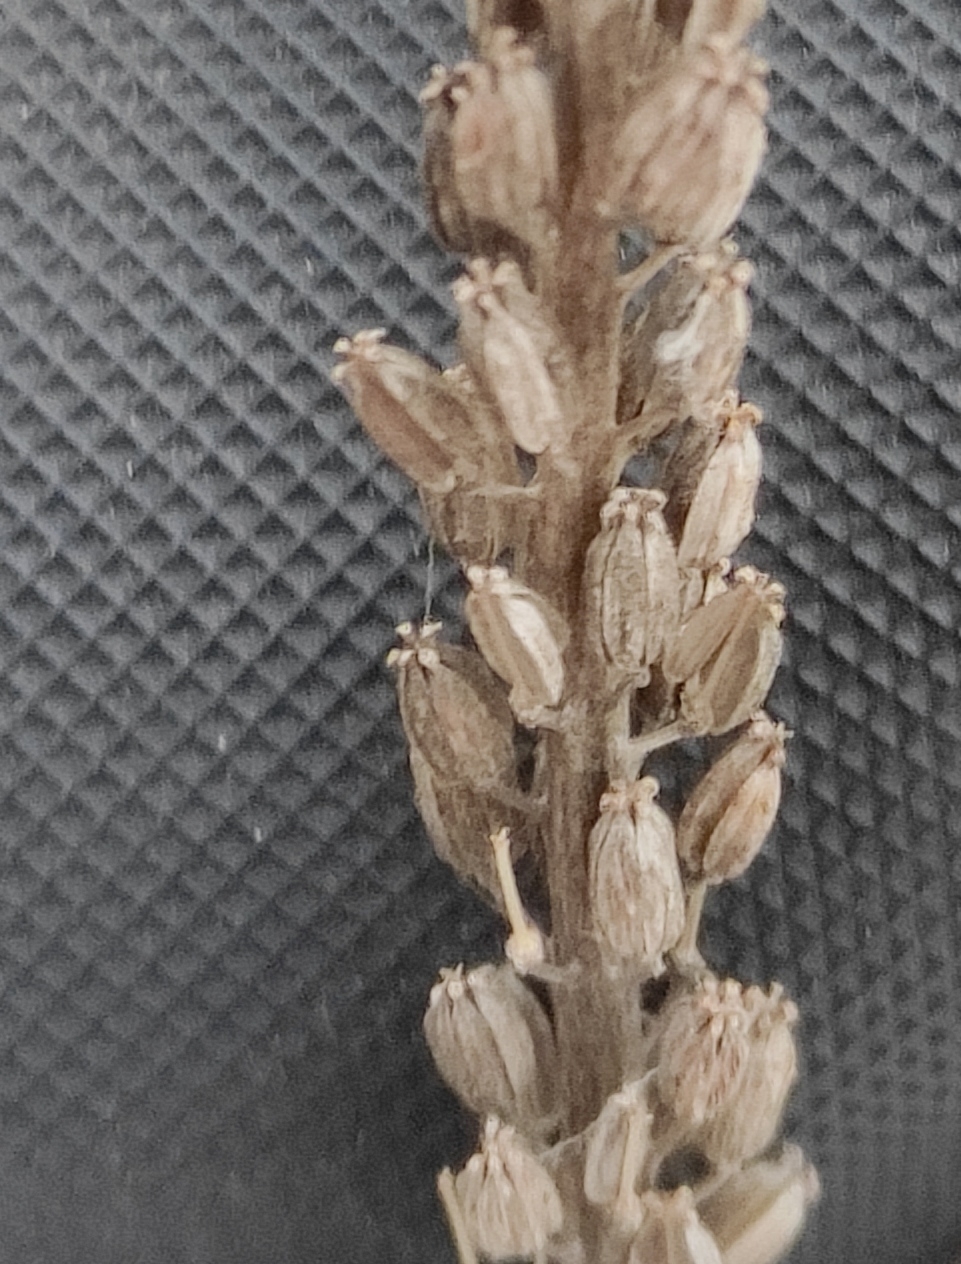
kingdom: Plantae
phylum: Tracheophyta
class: Liliopsida
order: Alismatales
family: Juncaginaceae
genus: Triglochin
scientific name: Triglochin maritima
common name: Sea arrowgrass
